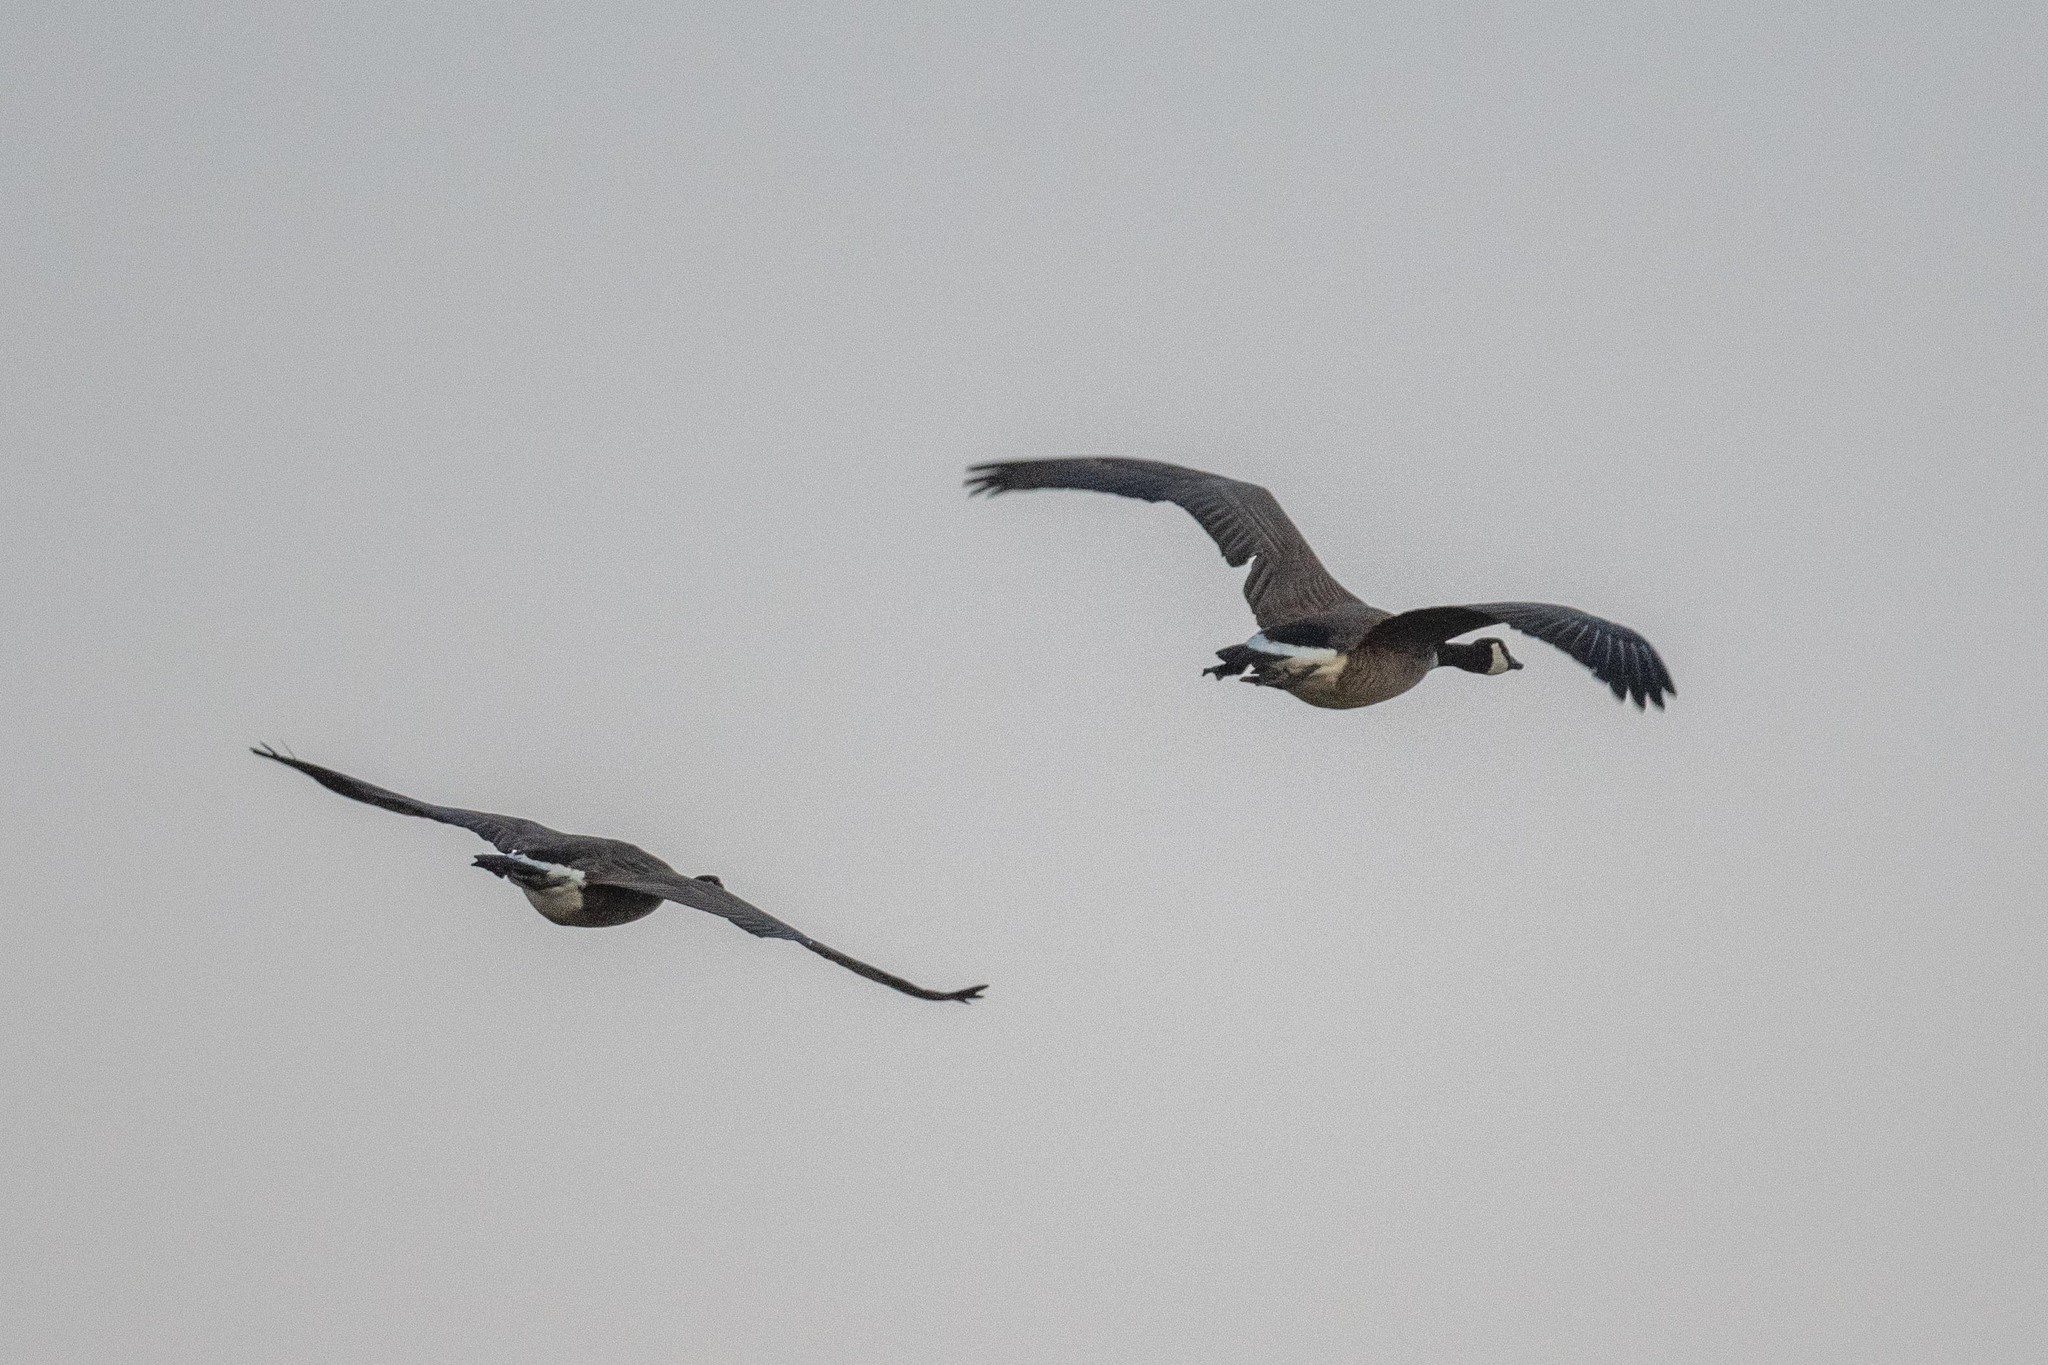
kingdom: Animalia
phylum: Chordata
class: Aves
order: Anseriformes
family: Anatidae
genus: Branta
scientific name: Branta canadensis
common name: Canada goose
